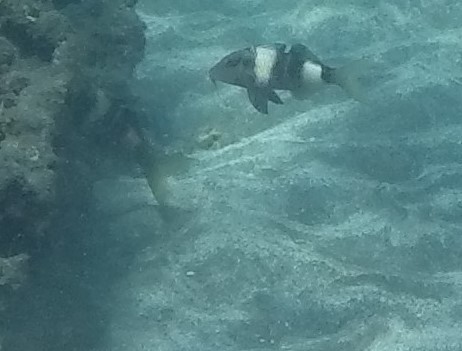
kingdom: Animalia
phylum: Chordata
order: Perciformes
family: Mullidae
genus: Parupeneus
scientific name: Parupeneus multifasciatus
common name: Manybar goatfish
